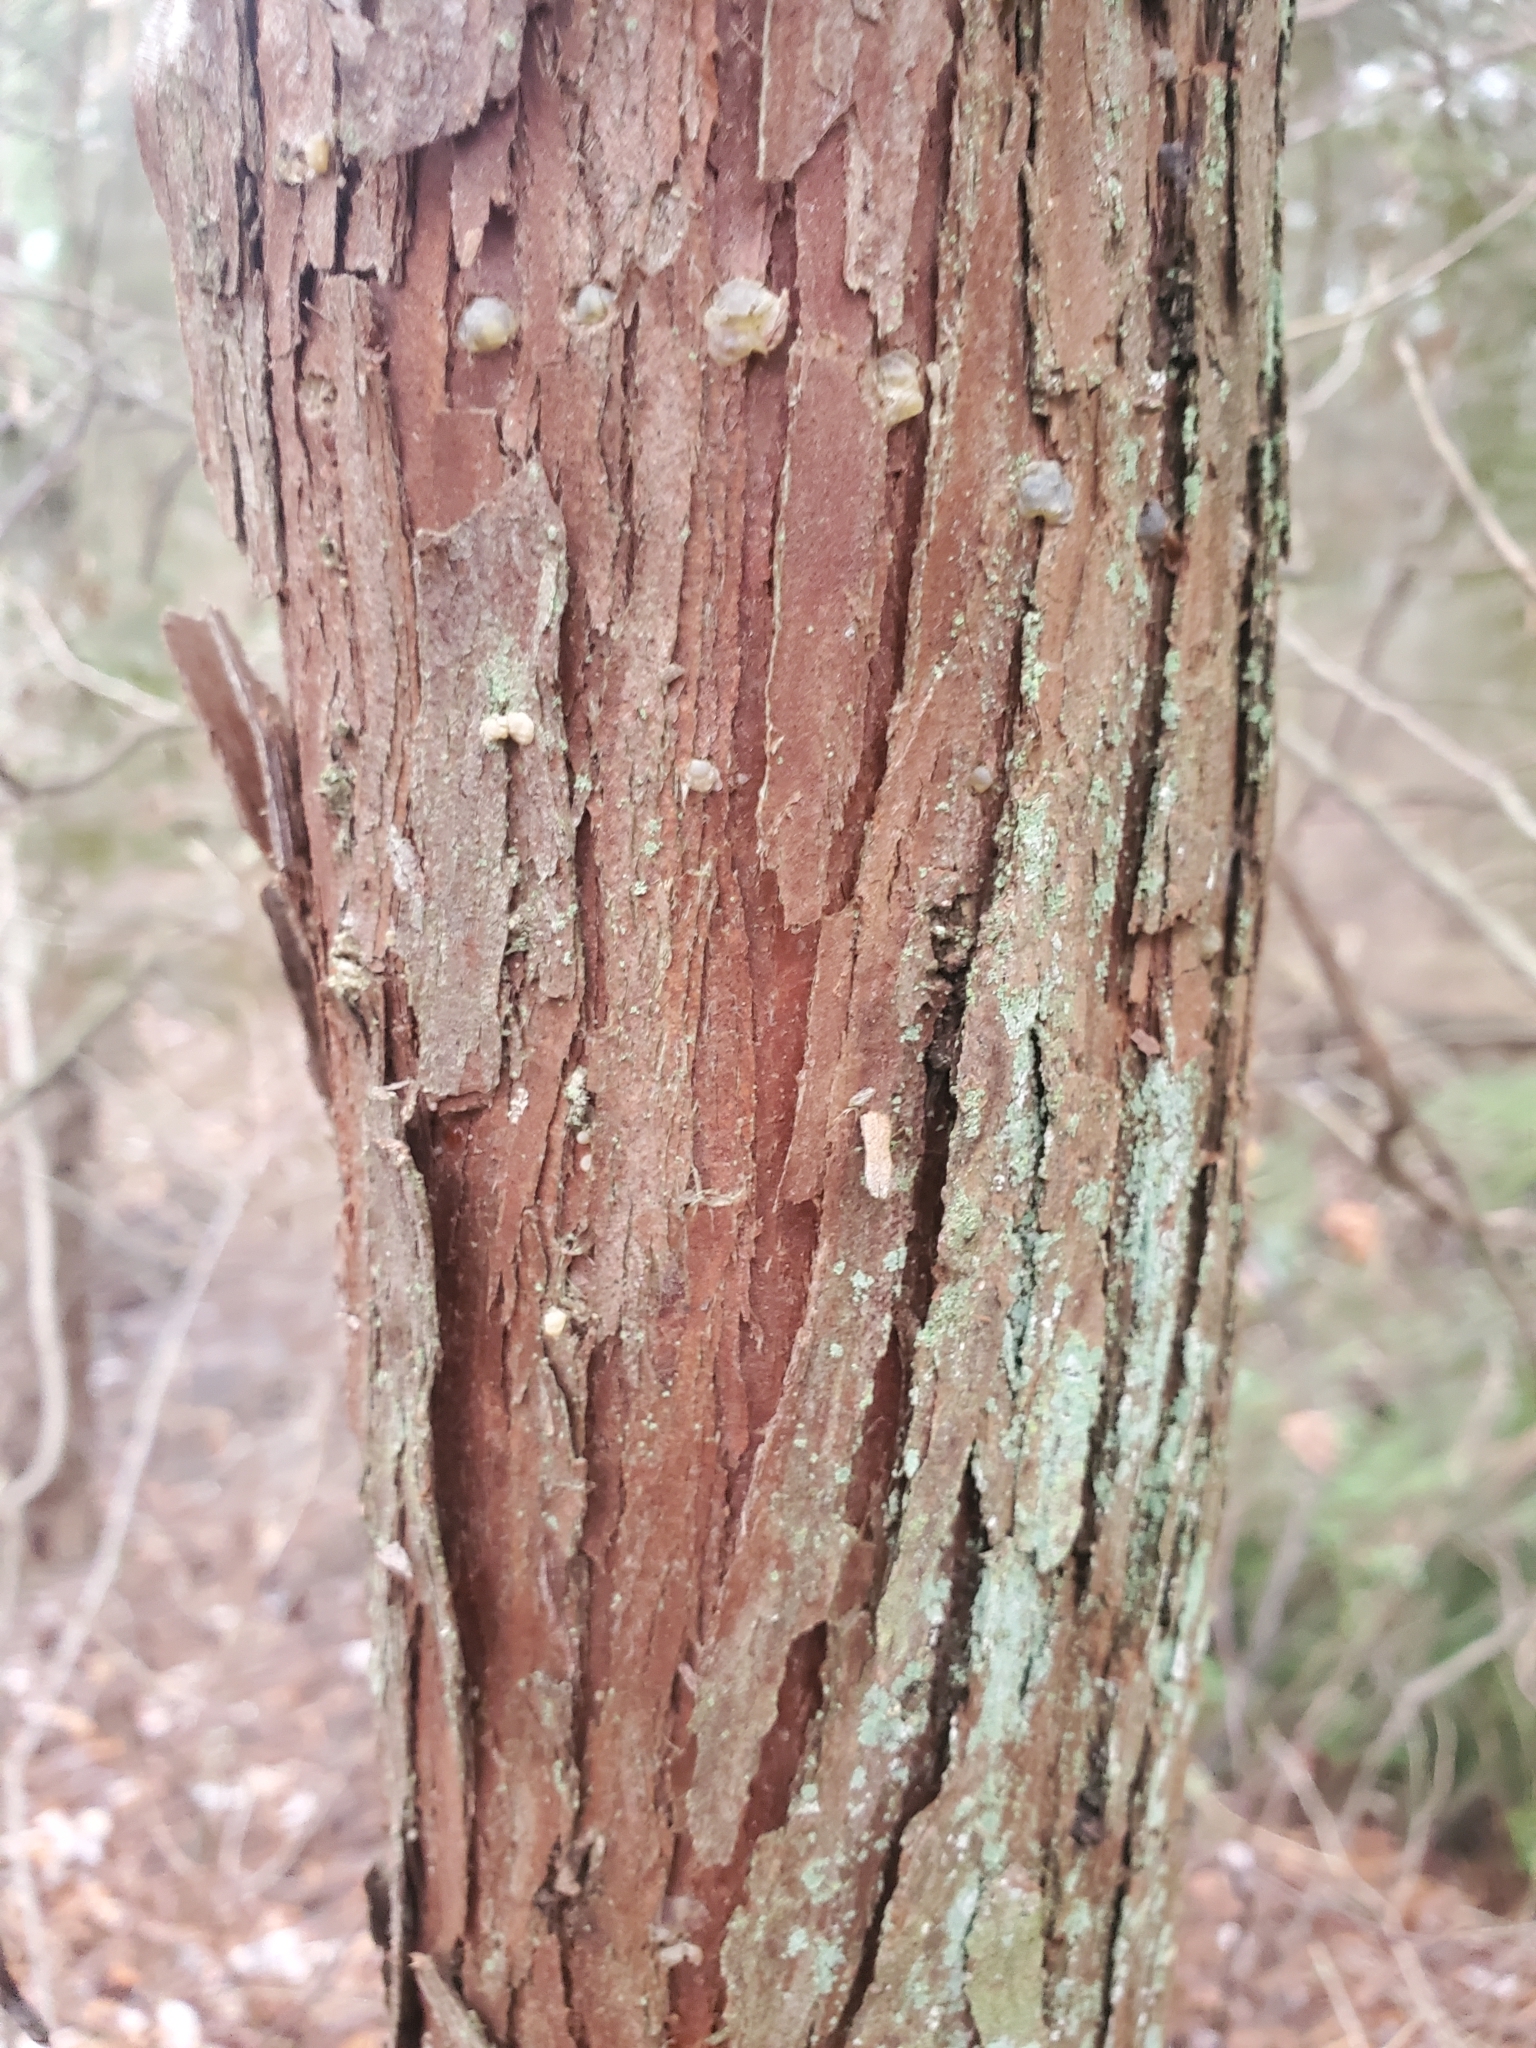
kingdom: Plantae
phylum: Tracheophyta
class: Pinopsida
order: Pinales
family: Cupressaceae
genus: Chamaecyparis
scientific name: Chamaecyparis thyoides
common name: Atlantic white cedar
